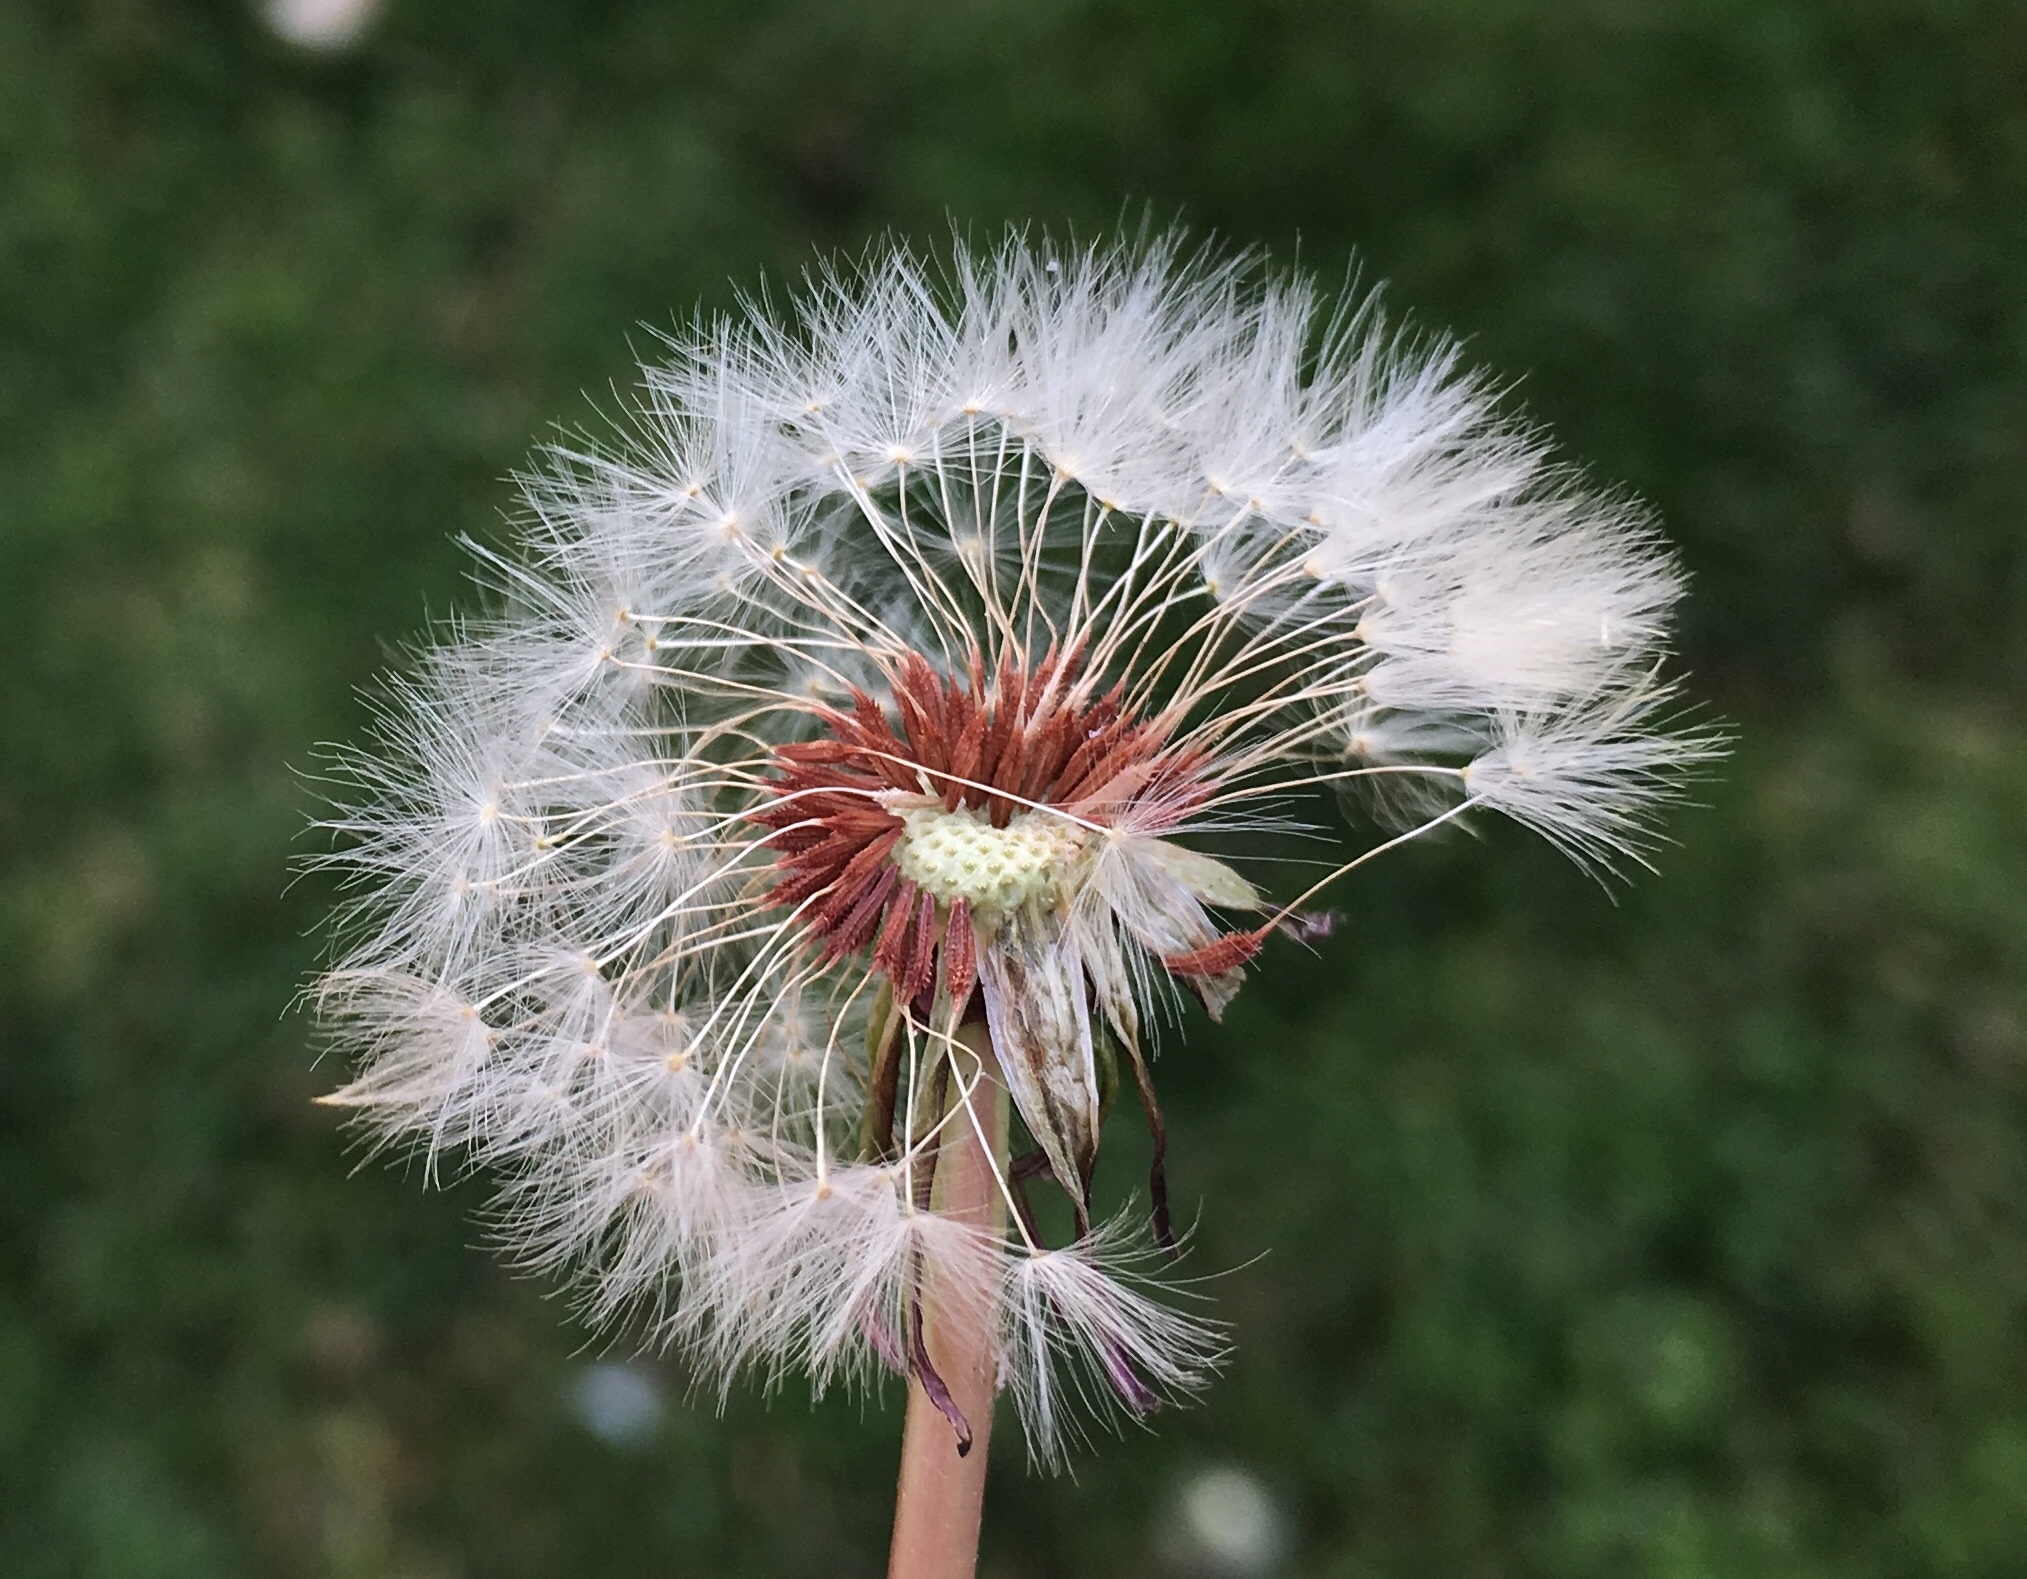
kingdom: Plantae
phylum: Tracheophyta
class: Magnoliopsida
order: Asterales
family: Asteraceae
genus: Taraxacum
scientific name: Taraxacum erythrospermum
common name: Rock dandelion
